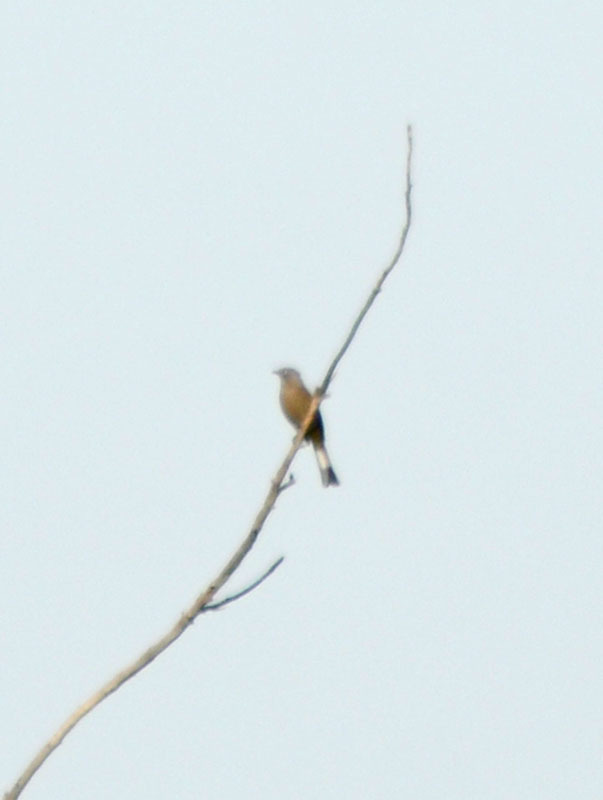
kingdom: Animalia
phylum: Chordata
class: Aves
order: Passeriformes
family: Ptilogonatidae
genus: Ptilogonys
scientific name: Ptilogonys cinereus
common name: Gray silky-flycatcher
